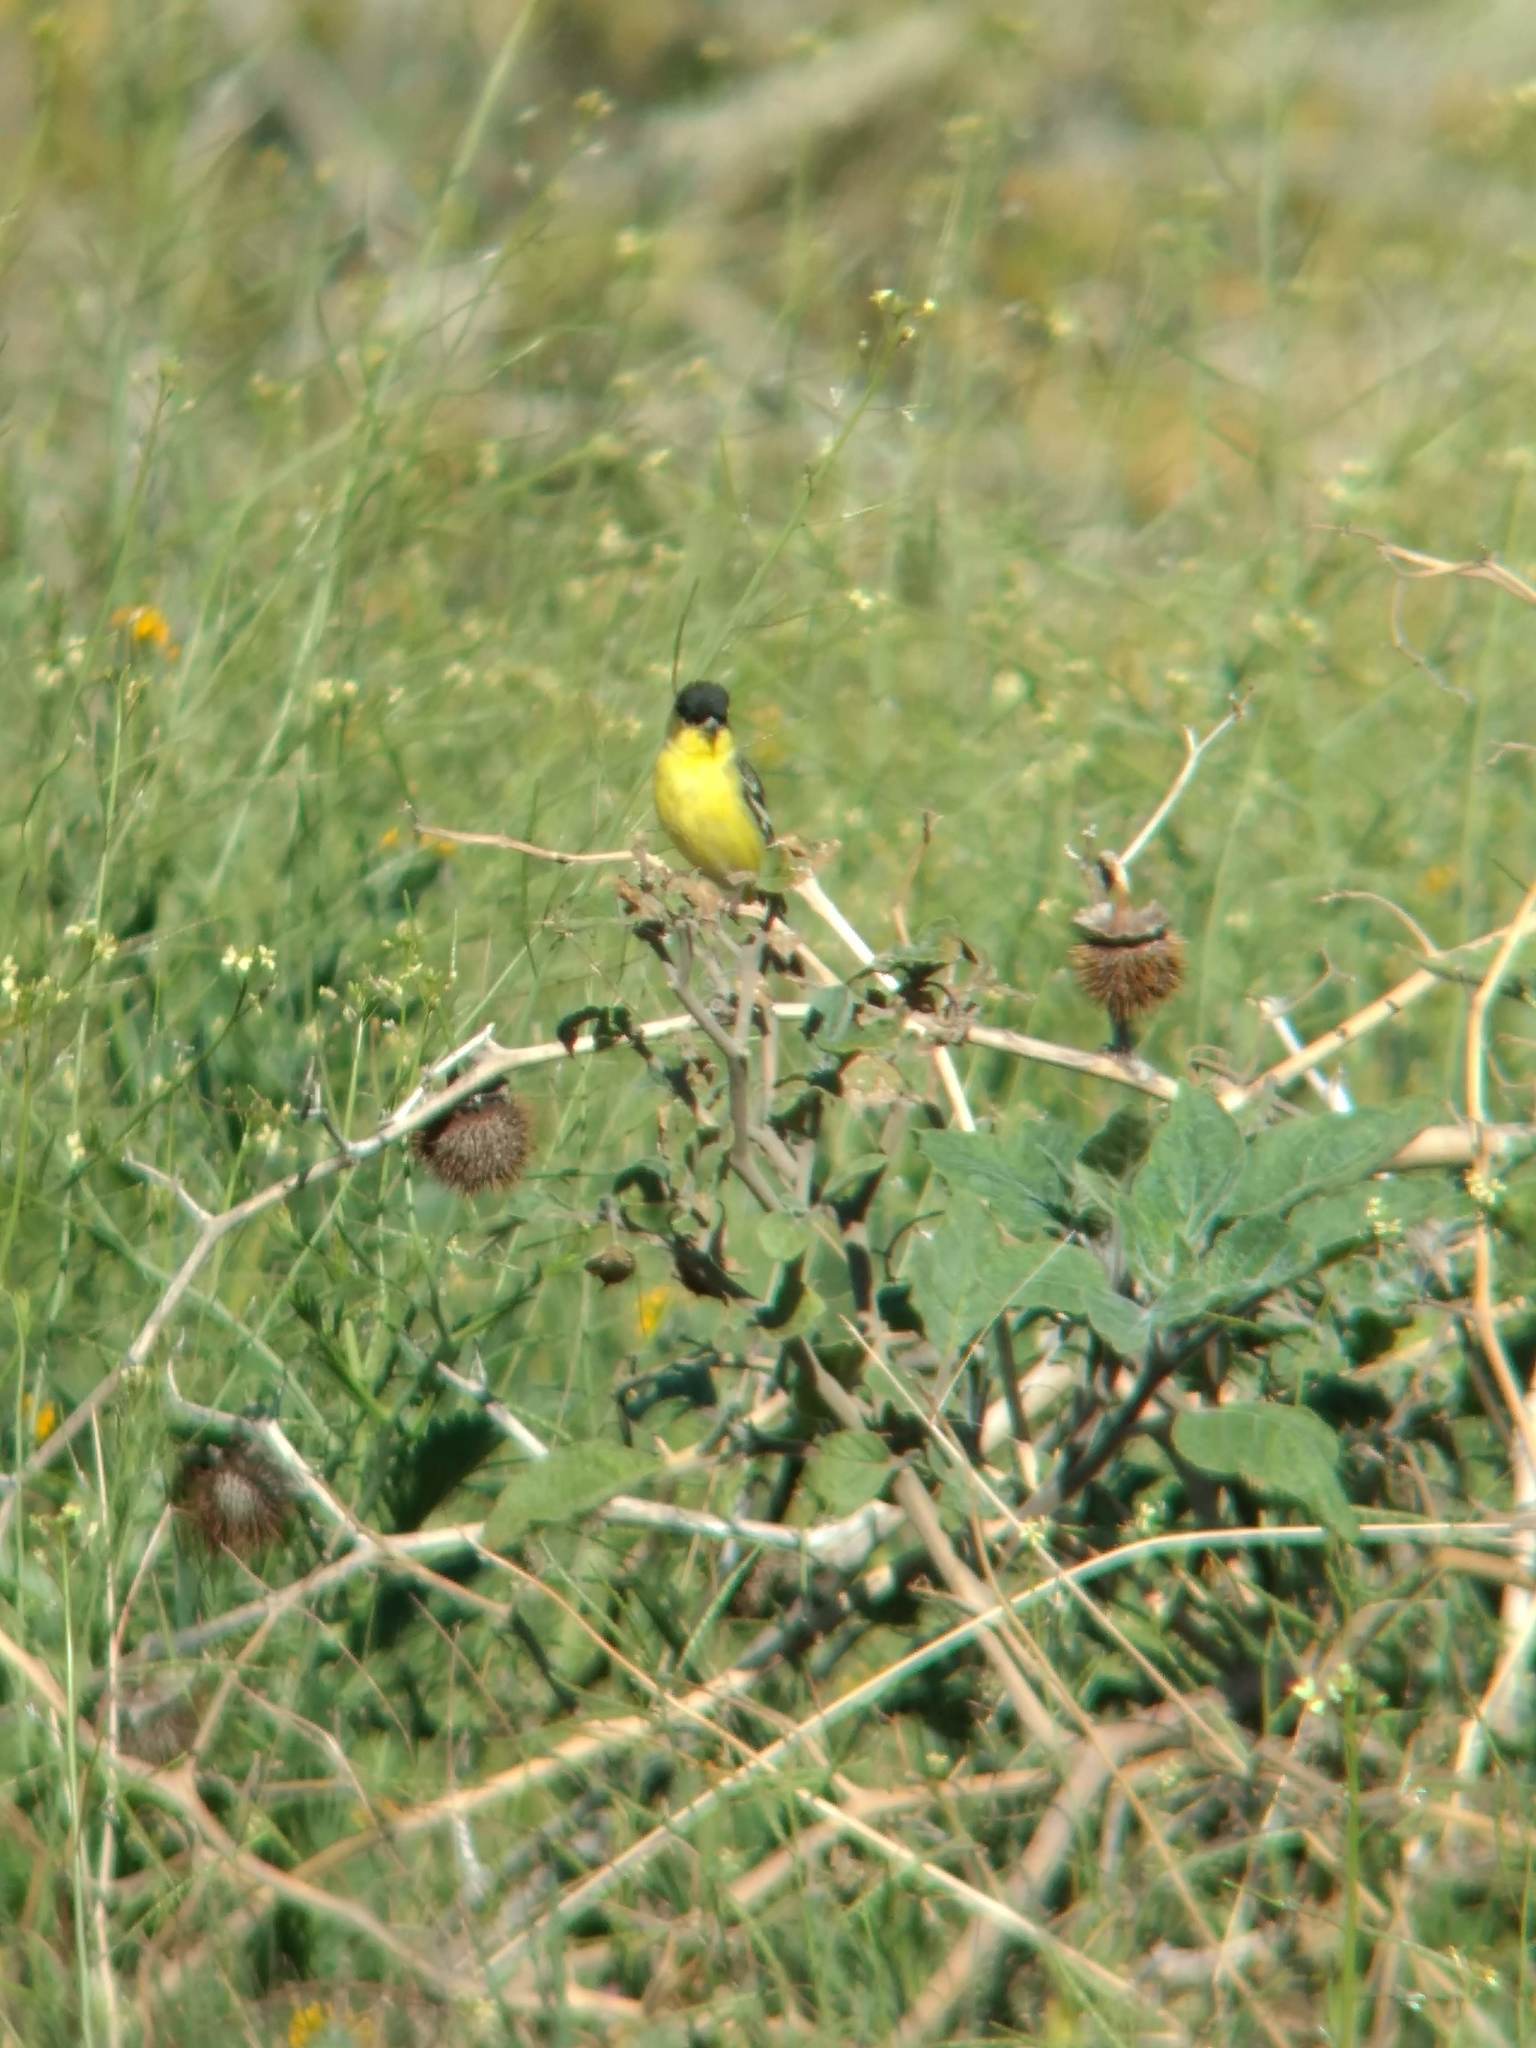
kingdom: Animalia
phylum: Chordata
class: Aves
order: Passeriformes
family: Fringillidae
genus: Spinus
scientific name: Spinus psaltria
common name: Lesser goldfinch
